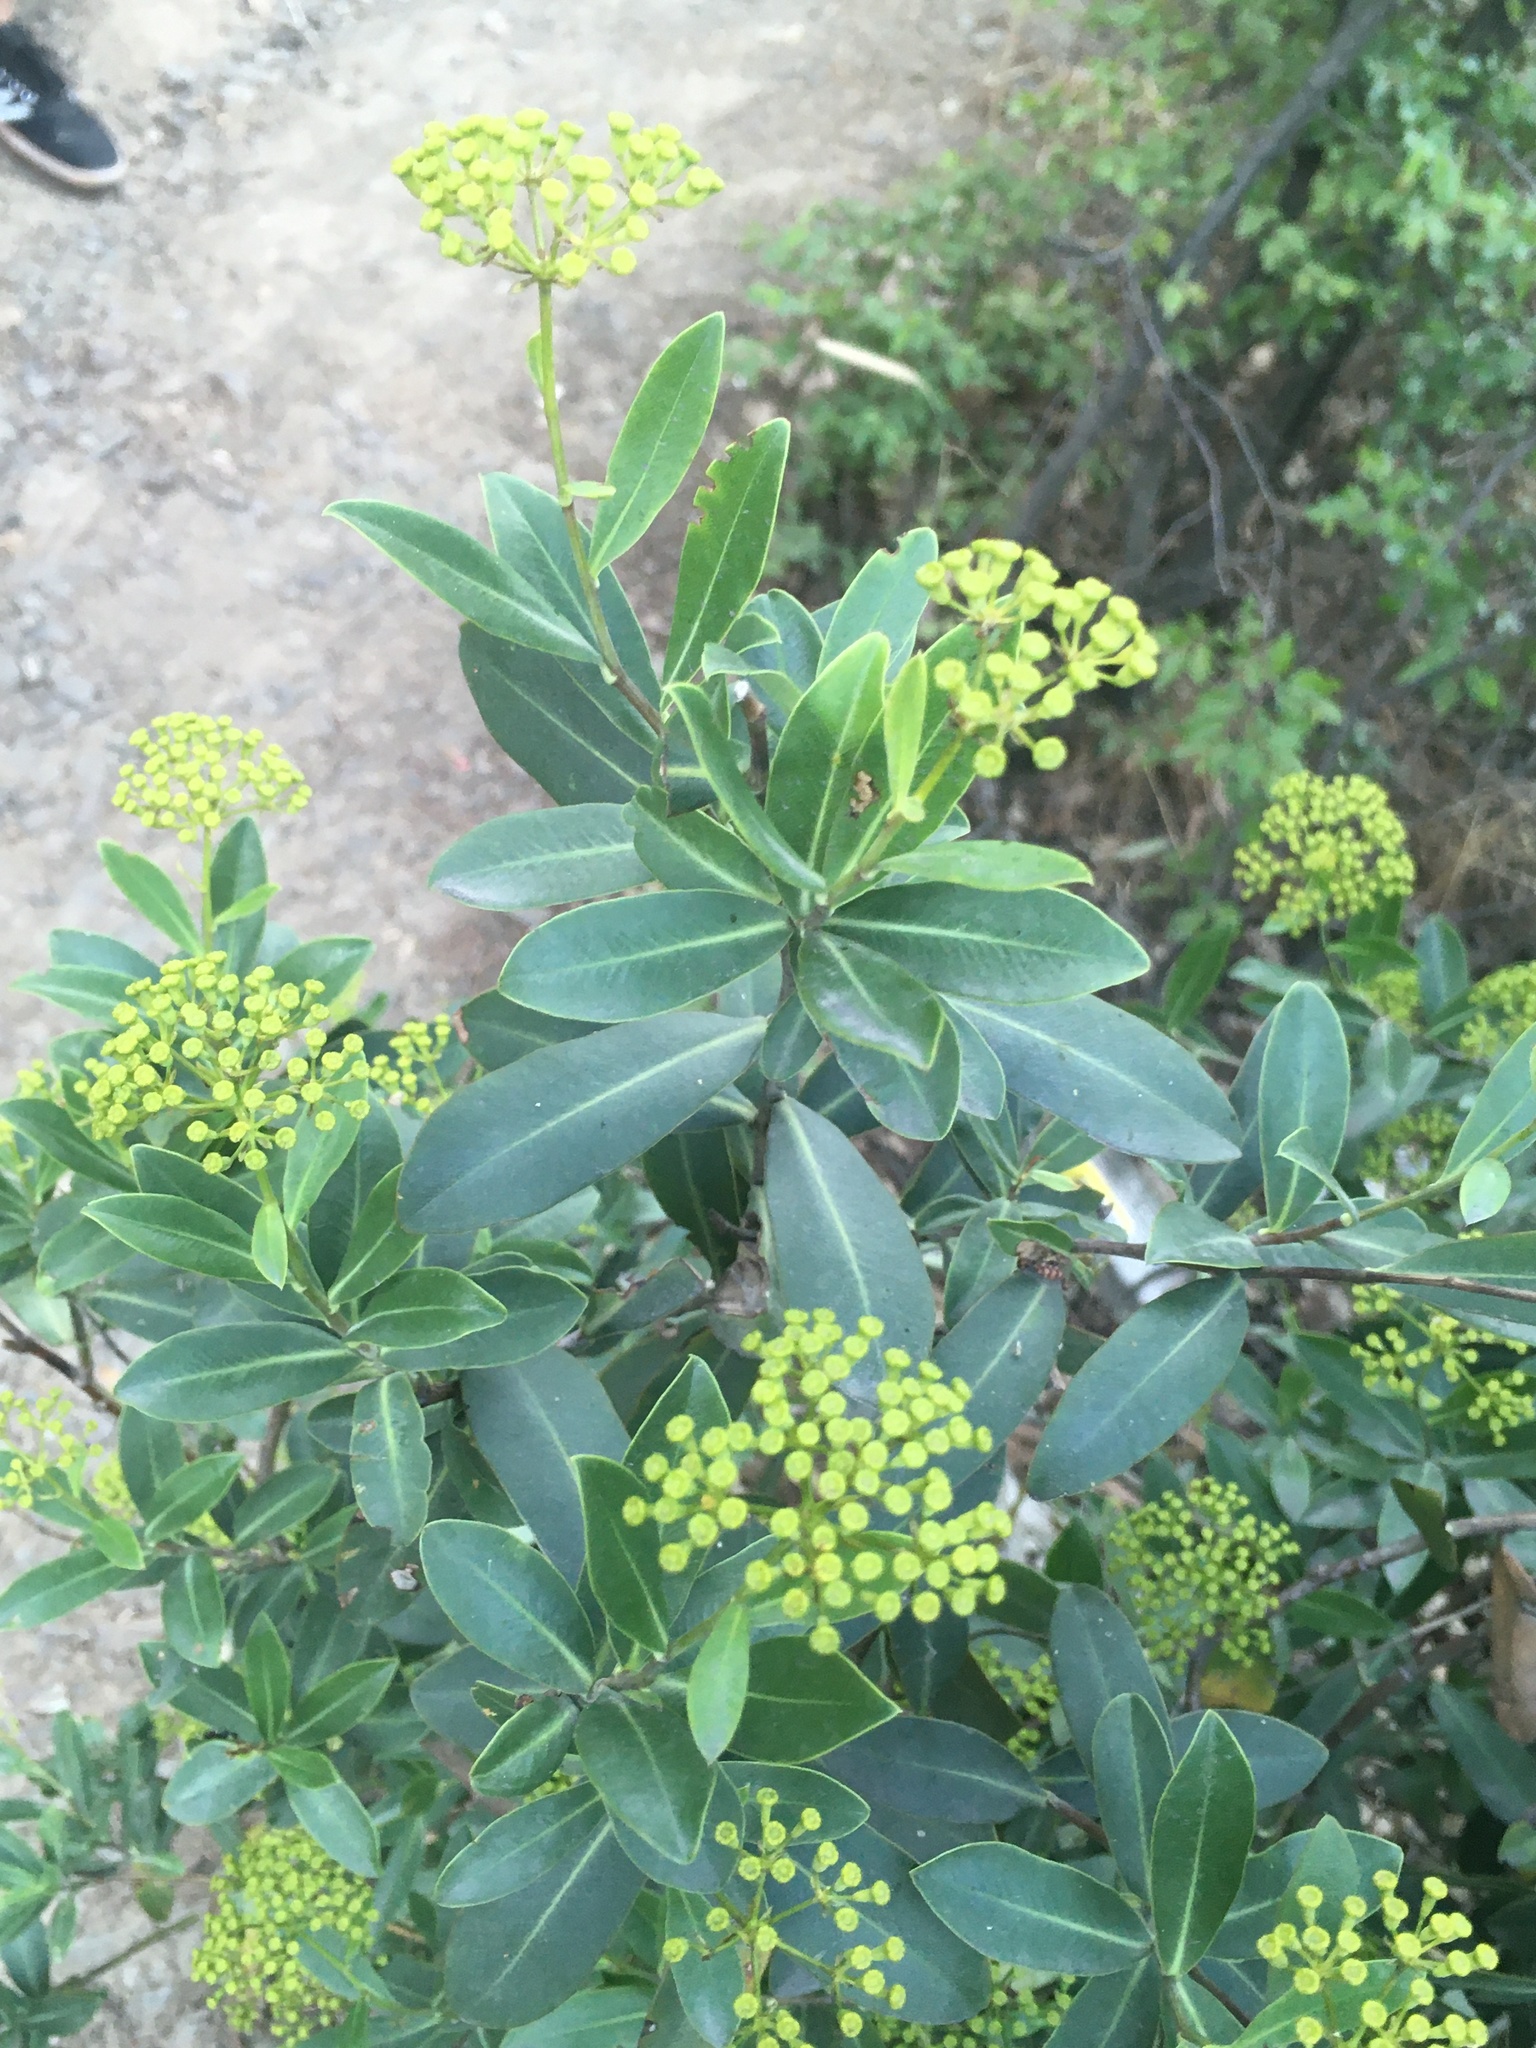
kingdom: Plantae
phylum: Tracheophyta
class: Magnoliopsida
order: Apiales
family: Apiaceae
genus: Bupleurum
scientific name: Bupleurum fruticosum
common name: Shrubby hare's-ear
